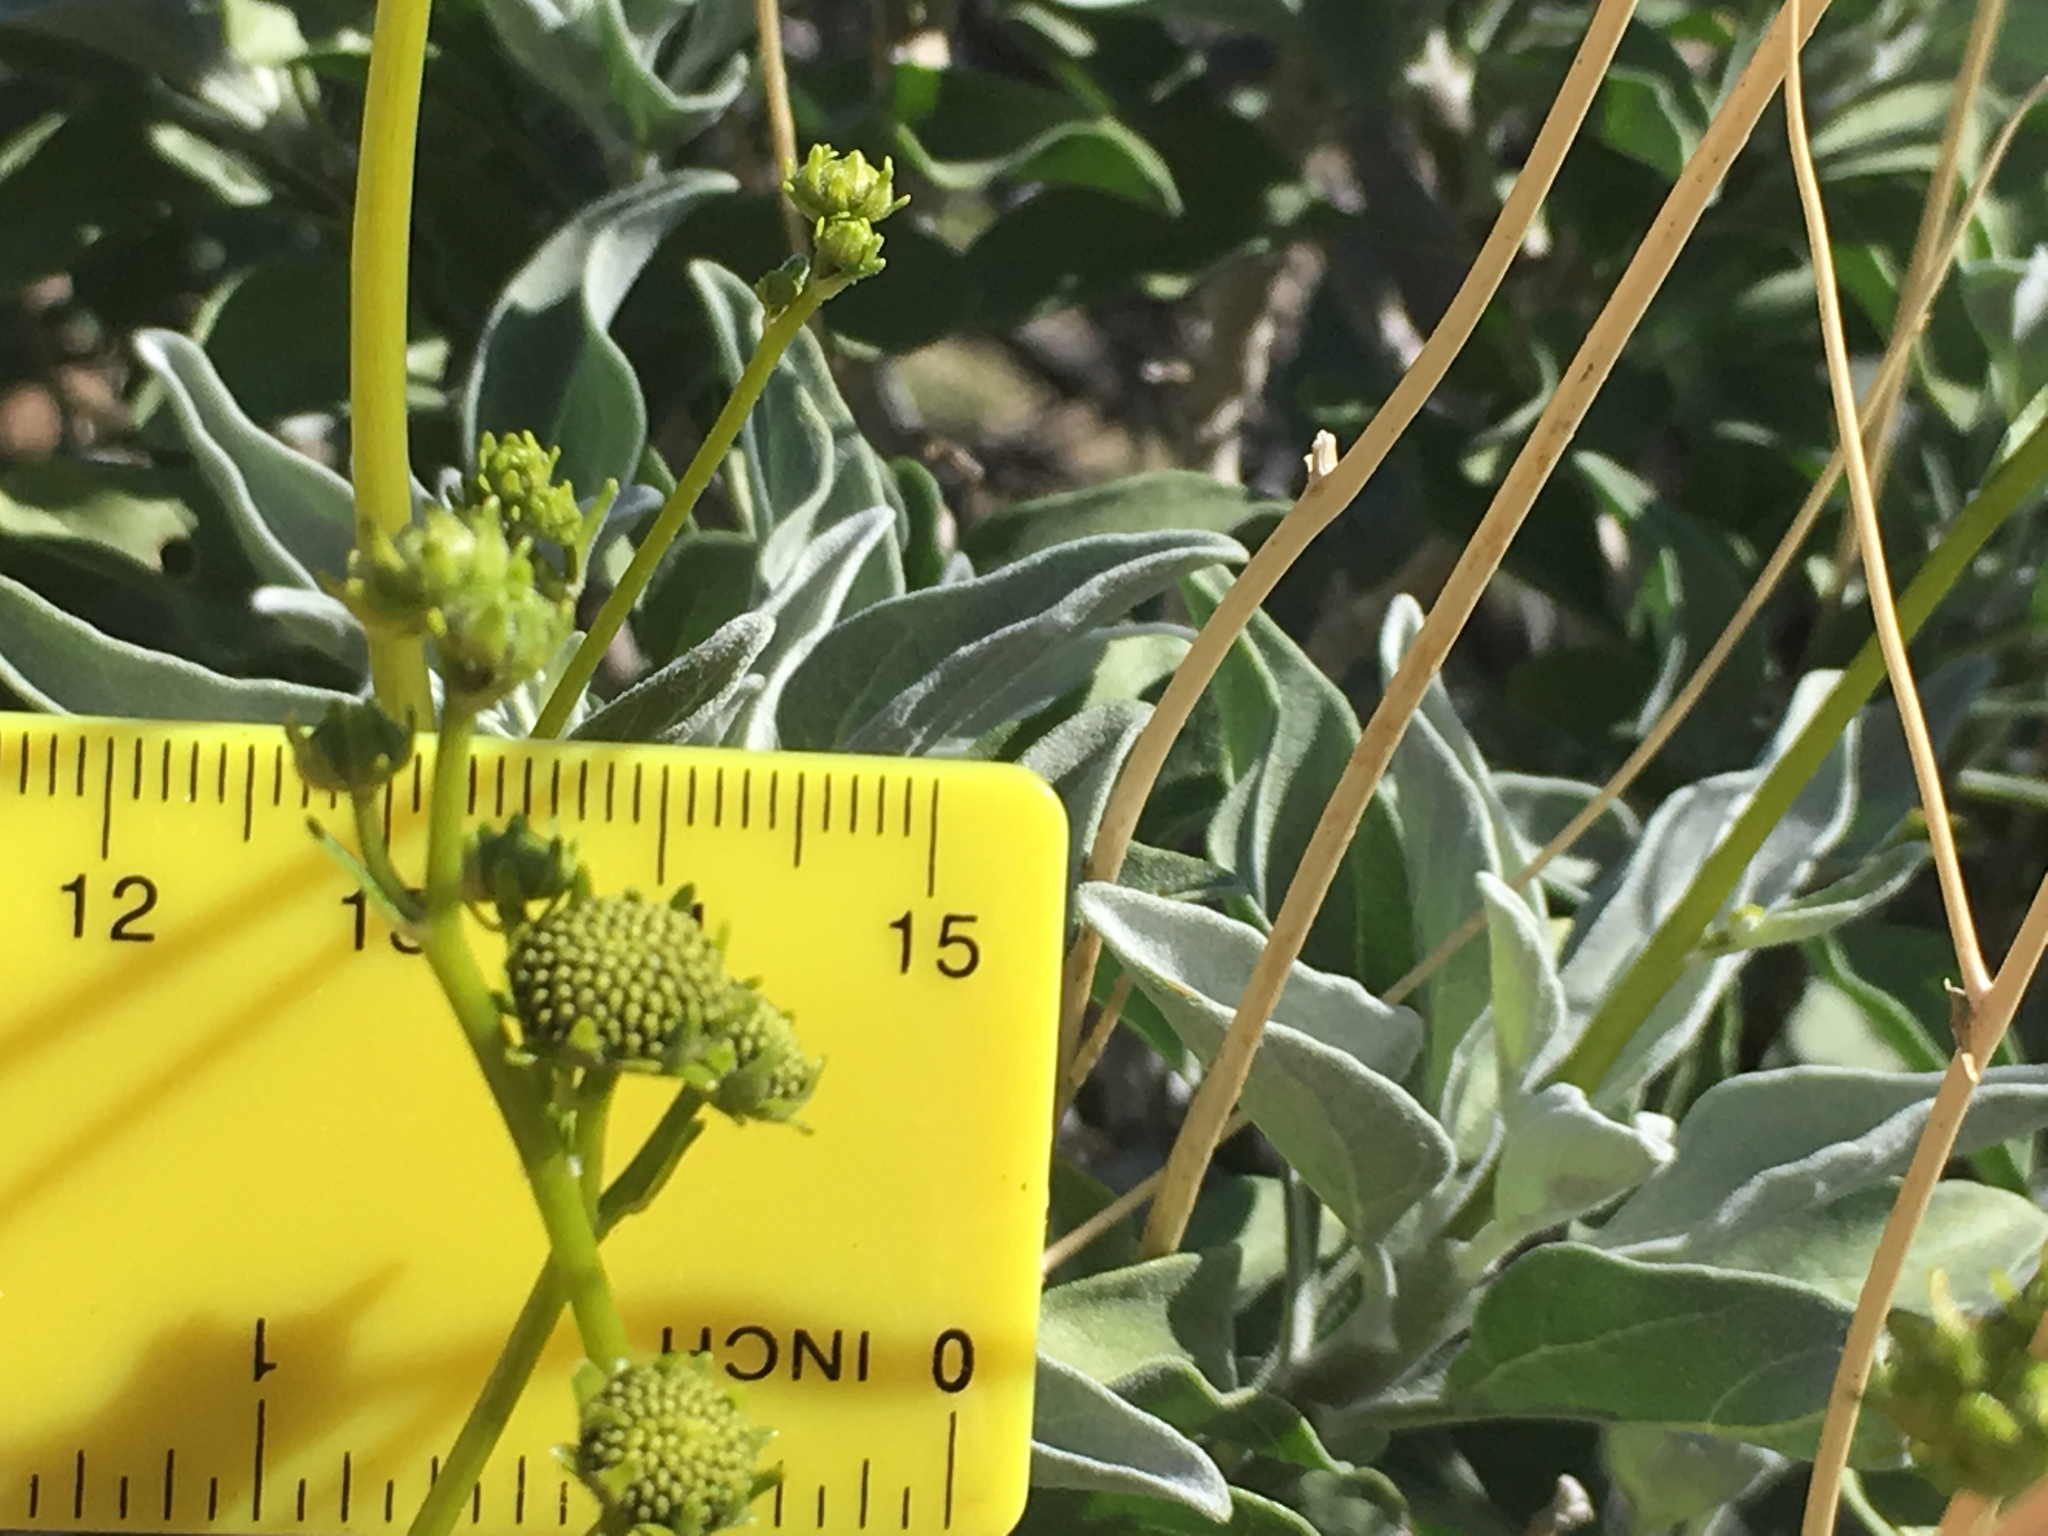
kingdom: Plantae
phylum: Tracheophyta
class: Magnoliopsida
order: Asterales
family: Asteraceae
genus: Encelia
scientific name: Encelia farinosa
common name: Brittlebush
